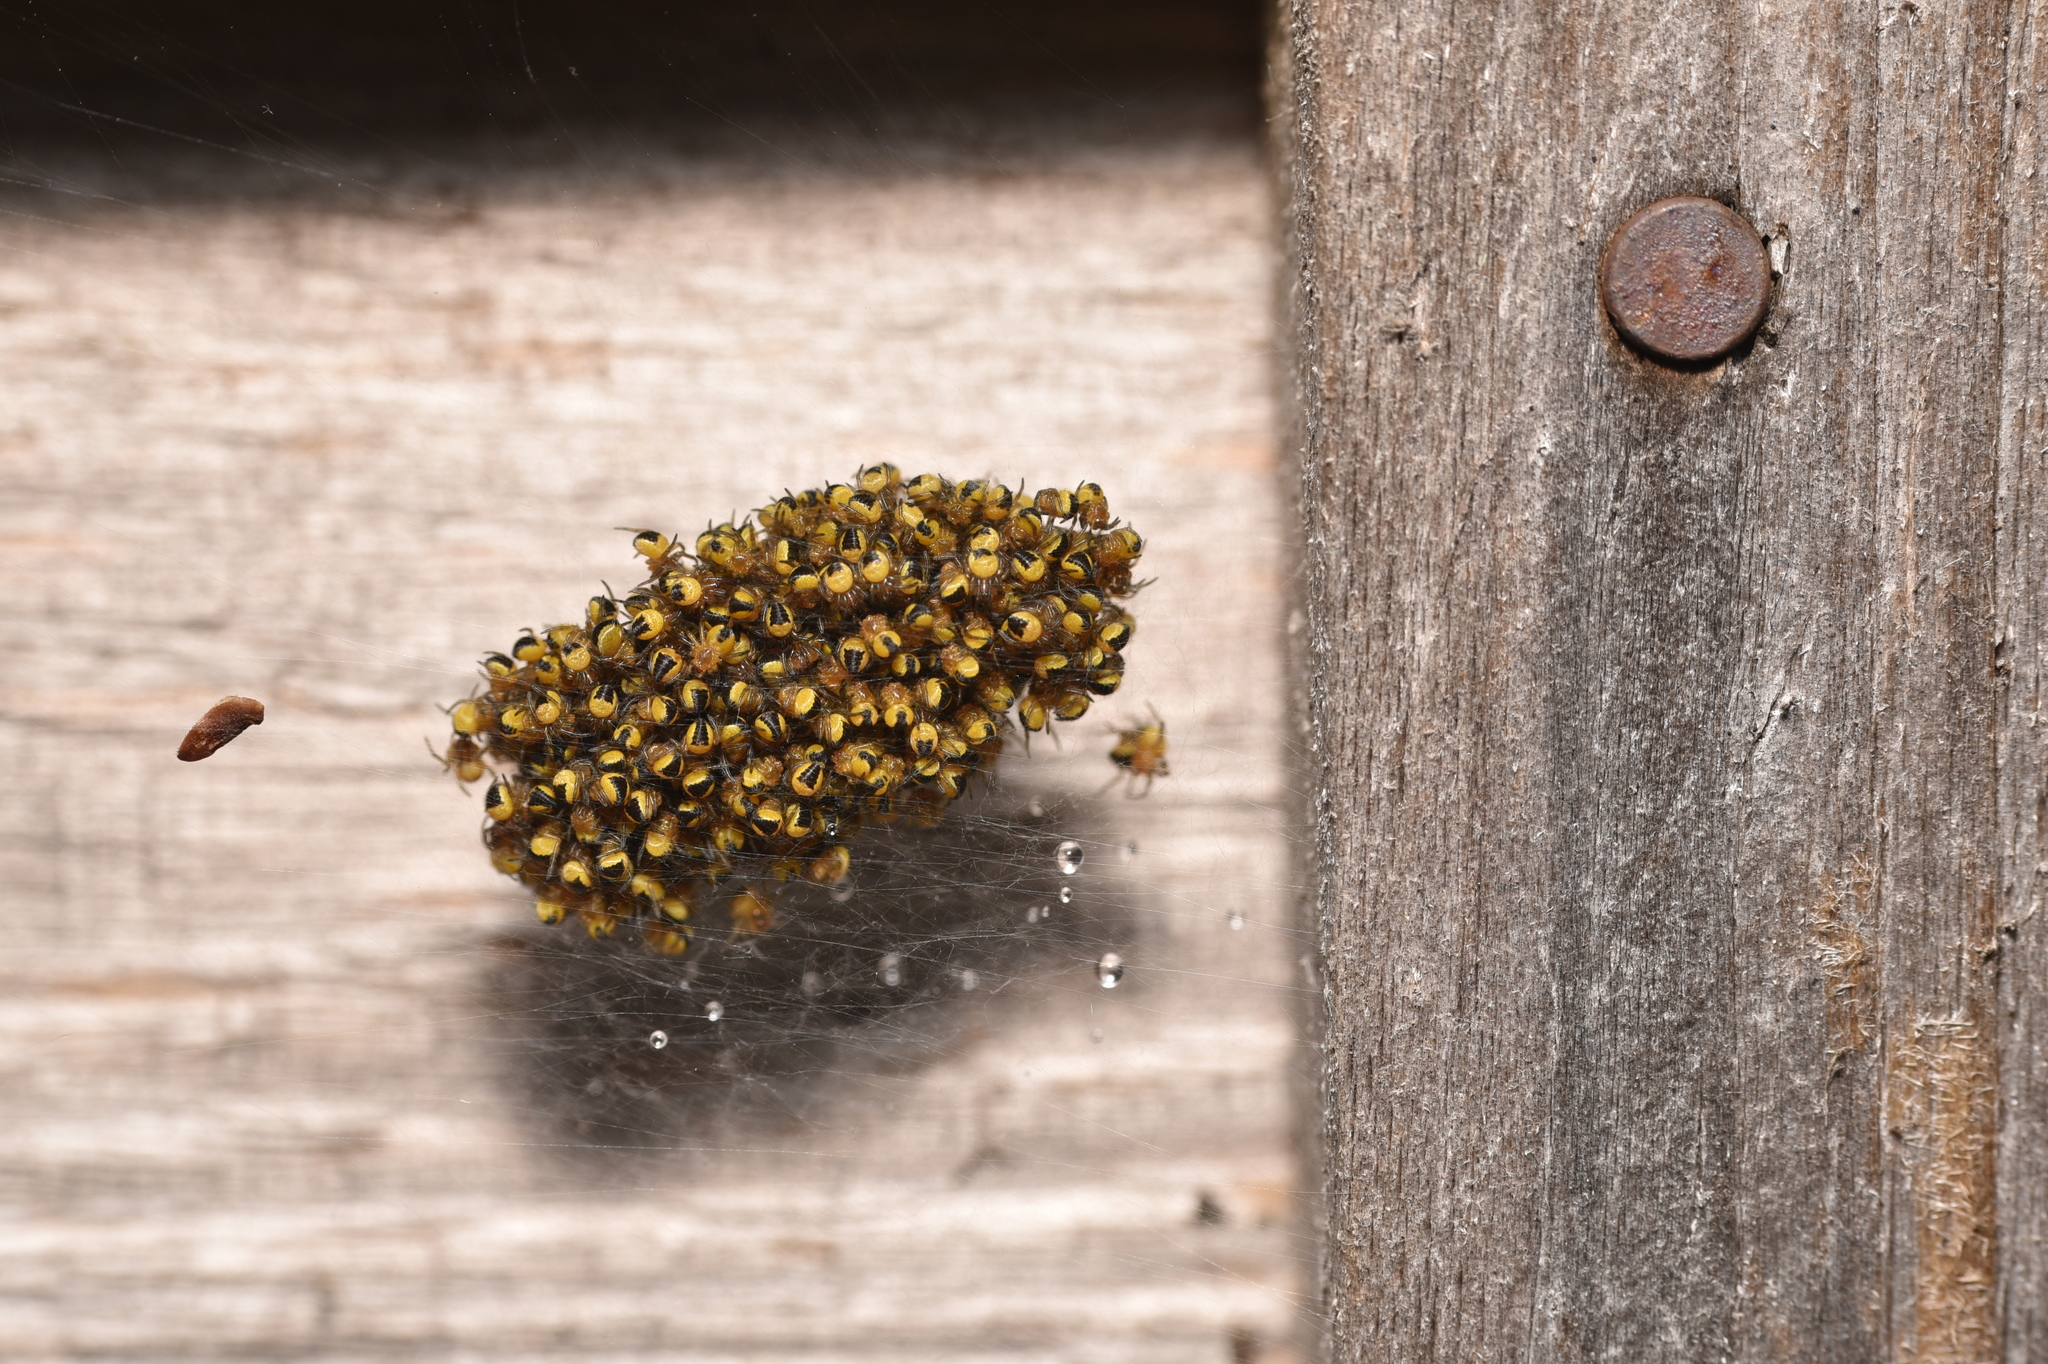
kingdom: Animalia
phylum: Arthropoda
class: Arachnida
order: Araneae
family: Araneidae
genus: Araneus
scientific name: Araneus diadematus
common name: Cross orbweaver
